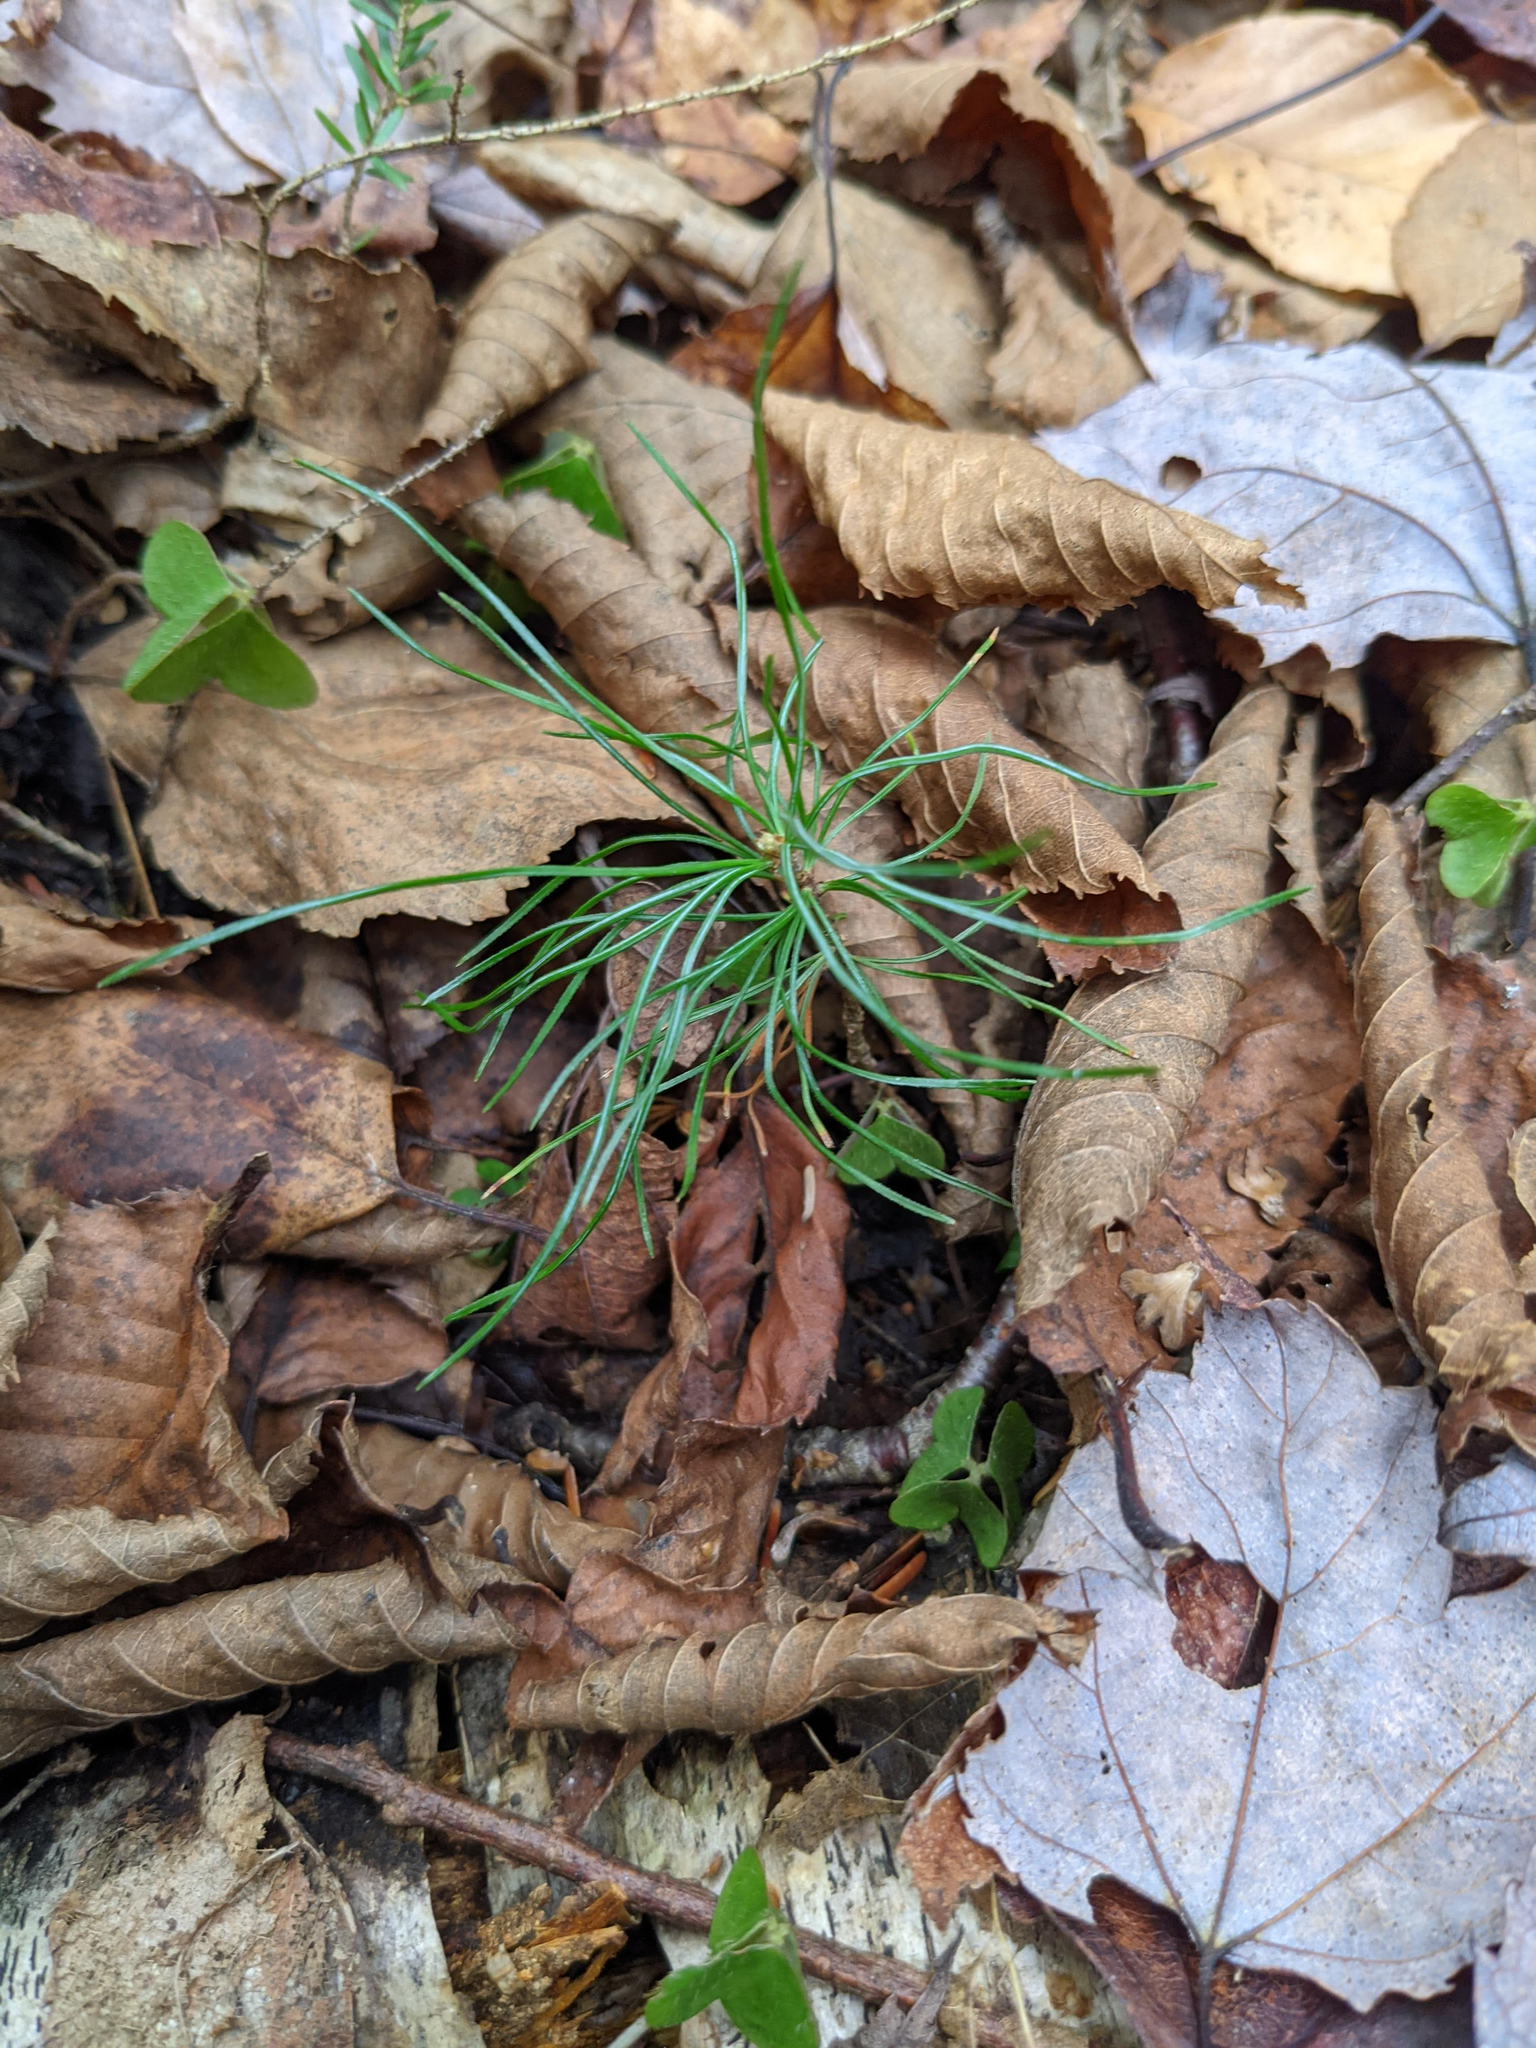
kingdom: Plantae
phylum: Tracheophyta
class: Pinopsida
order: Pinales
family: Pinaceae
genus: Pinus
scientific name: Pinus strobus
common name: Weymouth pine
